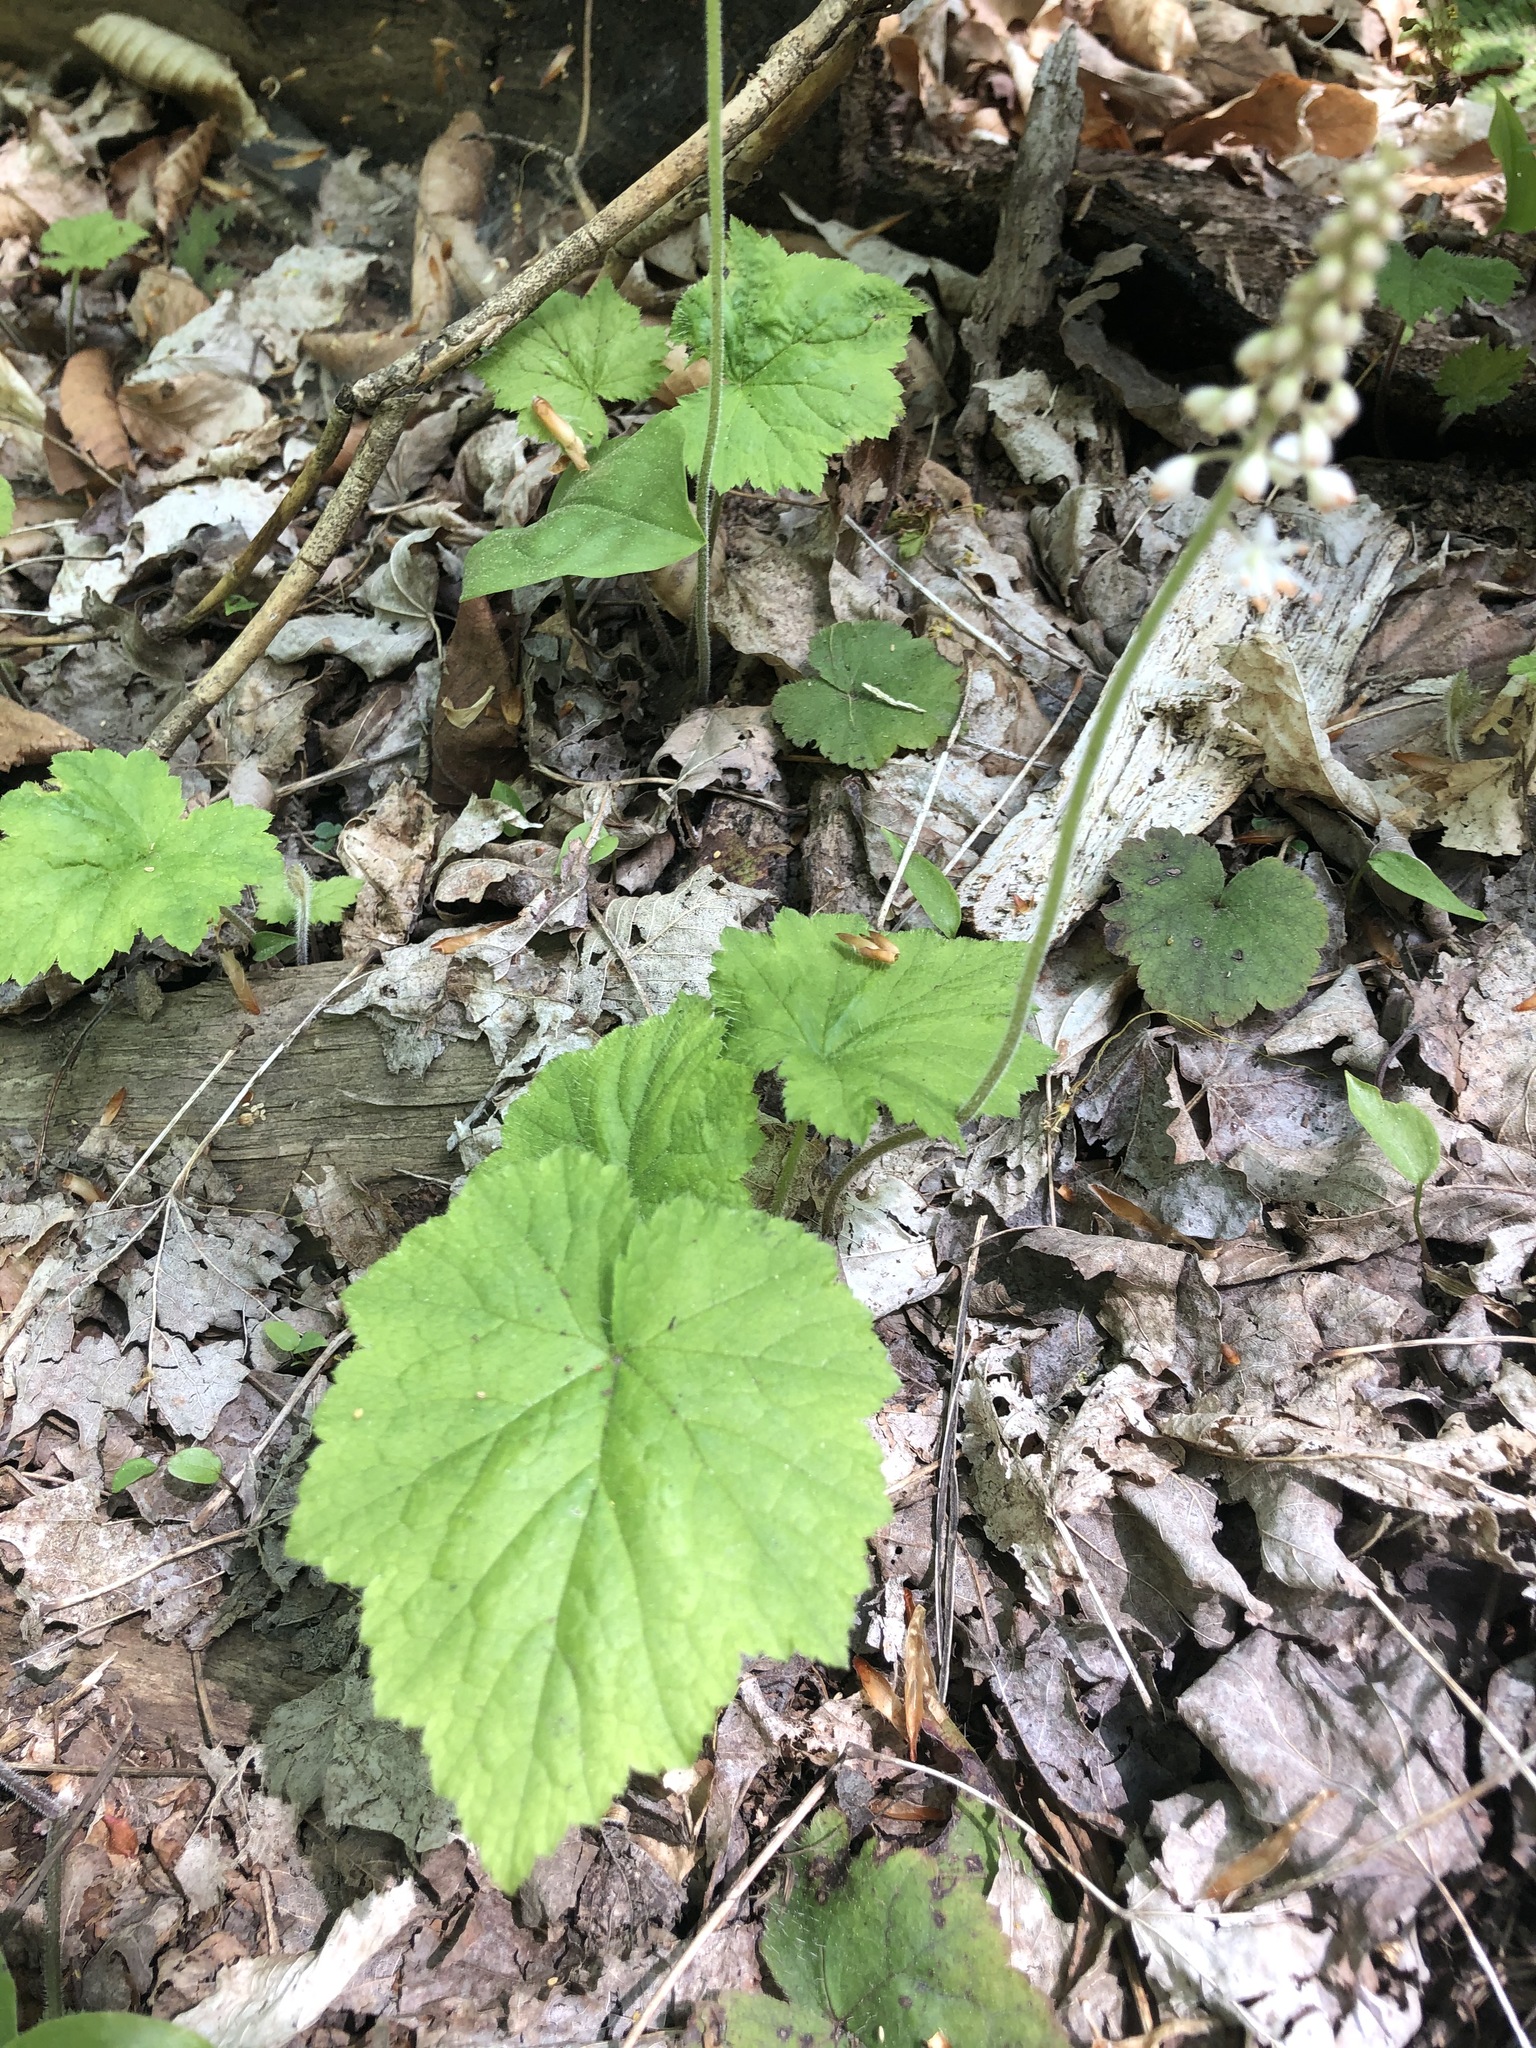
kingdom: Plantae
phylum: Tracheophyta
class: Magnoliopsida
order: Saxifragales
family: Saxifragaceae
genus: Tiarella
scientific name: Tiarella stolonifera
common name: Stoloniferous foamflower
